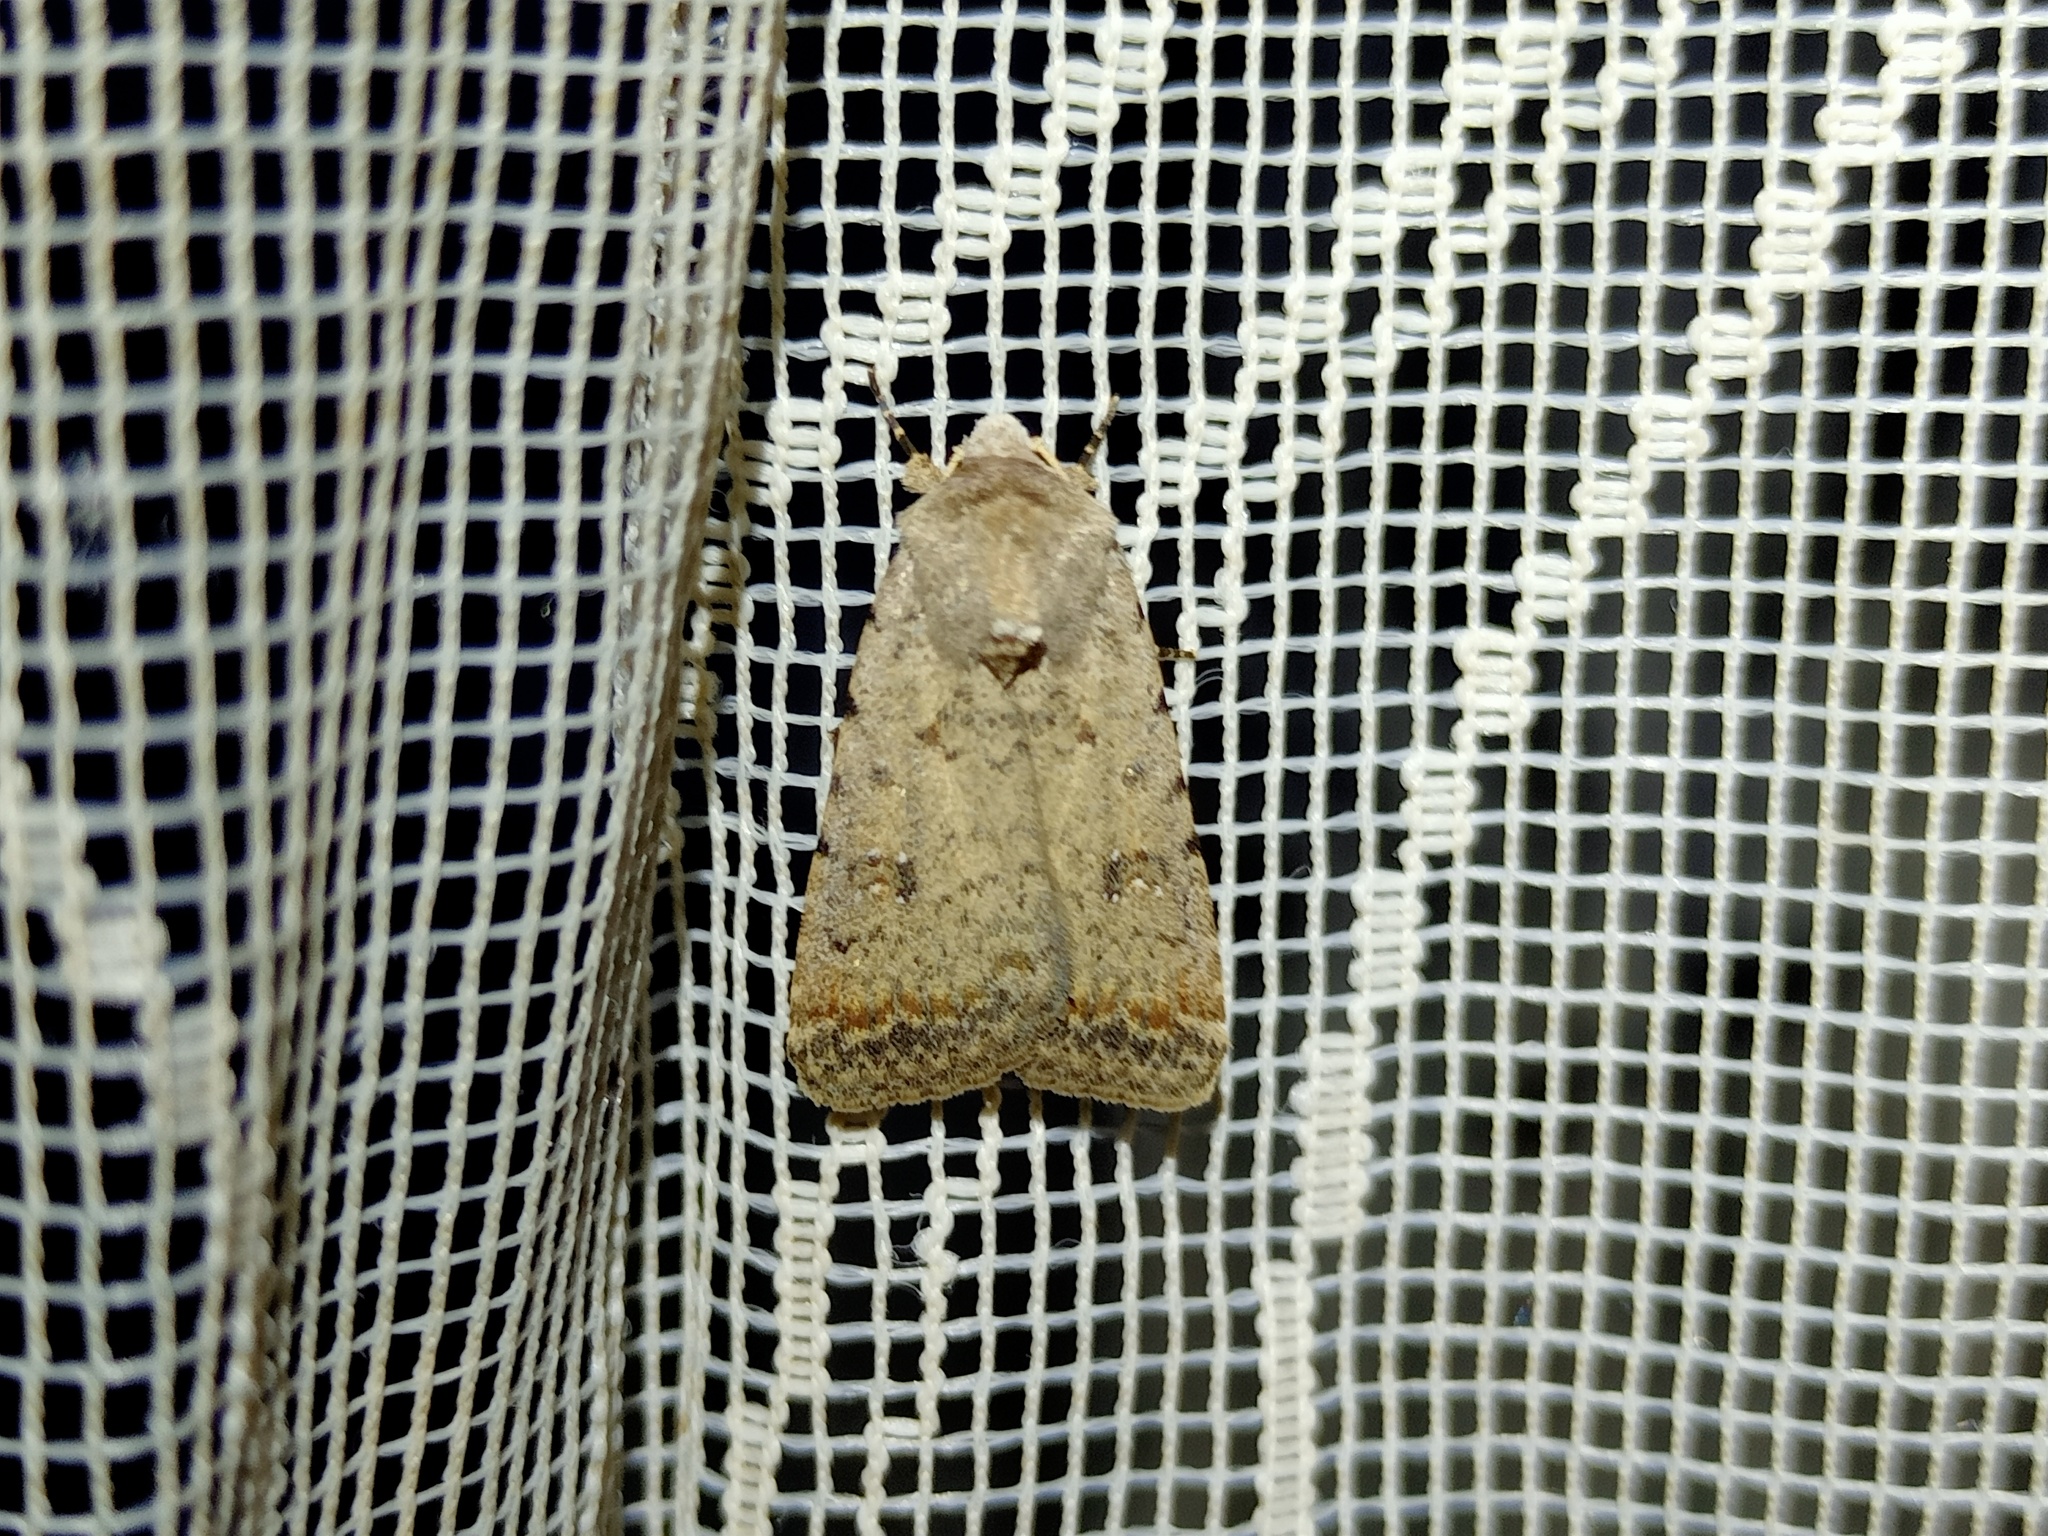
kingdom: Animalia
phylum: Arthropoda
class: Insecta
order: Lepidoptera
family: Noctuidae
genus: Caradrina
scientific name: Caradrina clavipalpis
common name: Pale mottled willow
